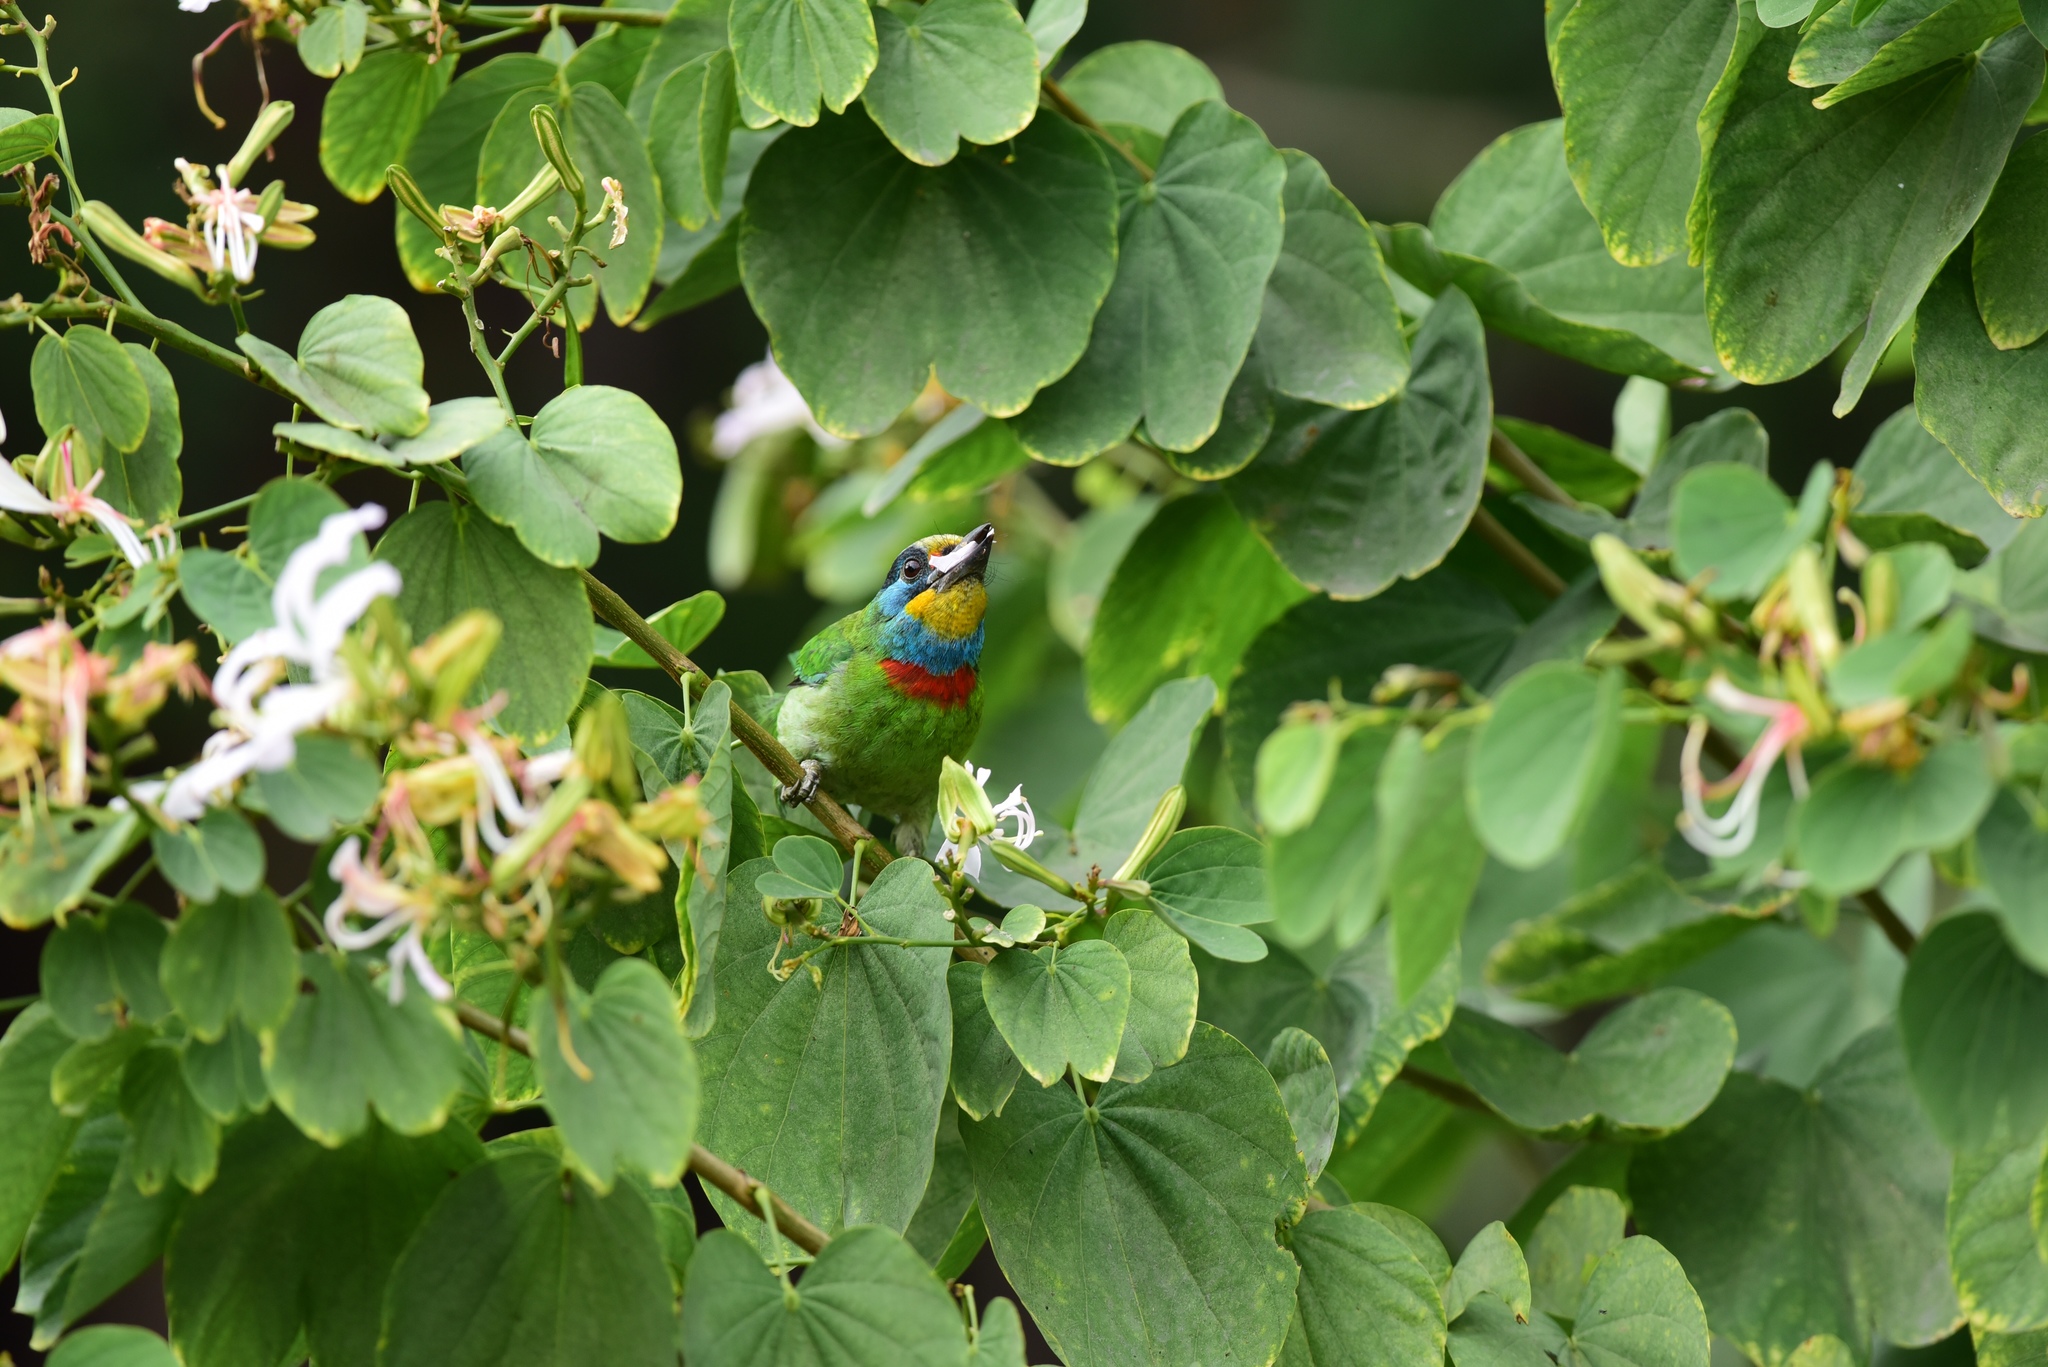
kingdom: Animalia
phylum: Chordata
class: Aves
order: Piciformes
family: Megalaimidae
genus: Psilopogon
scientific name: Psilopogon nuchalis
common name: Taiwan barbet
